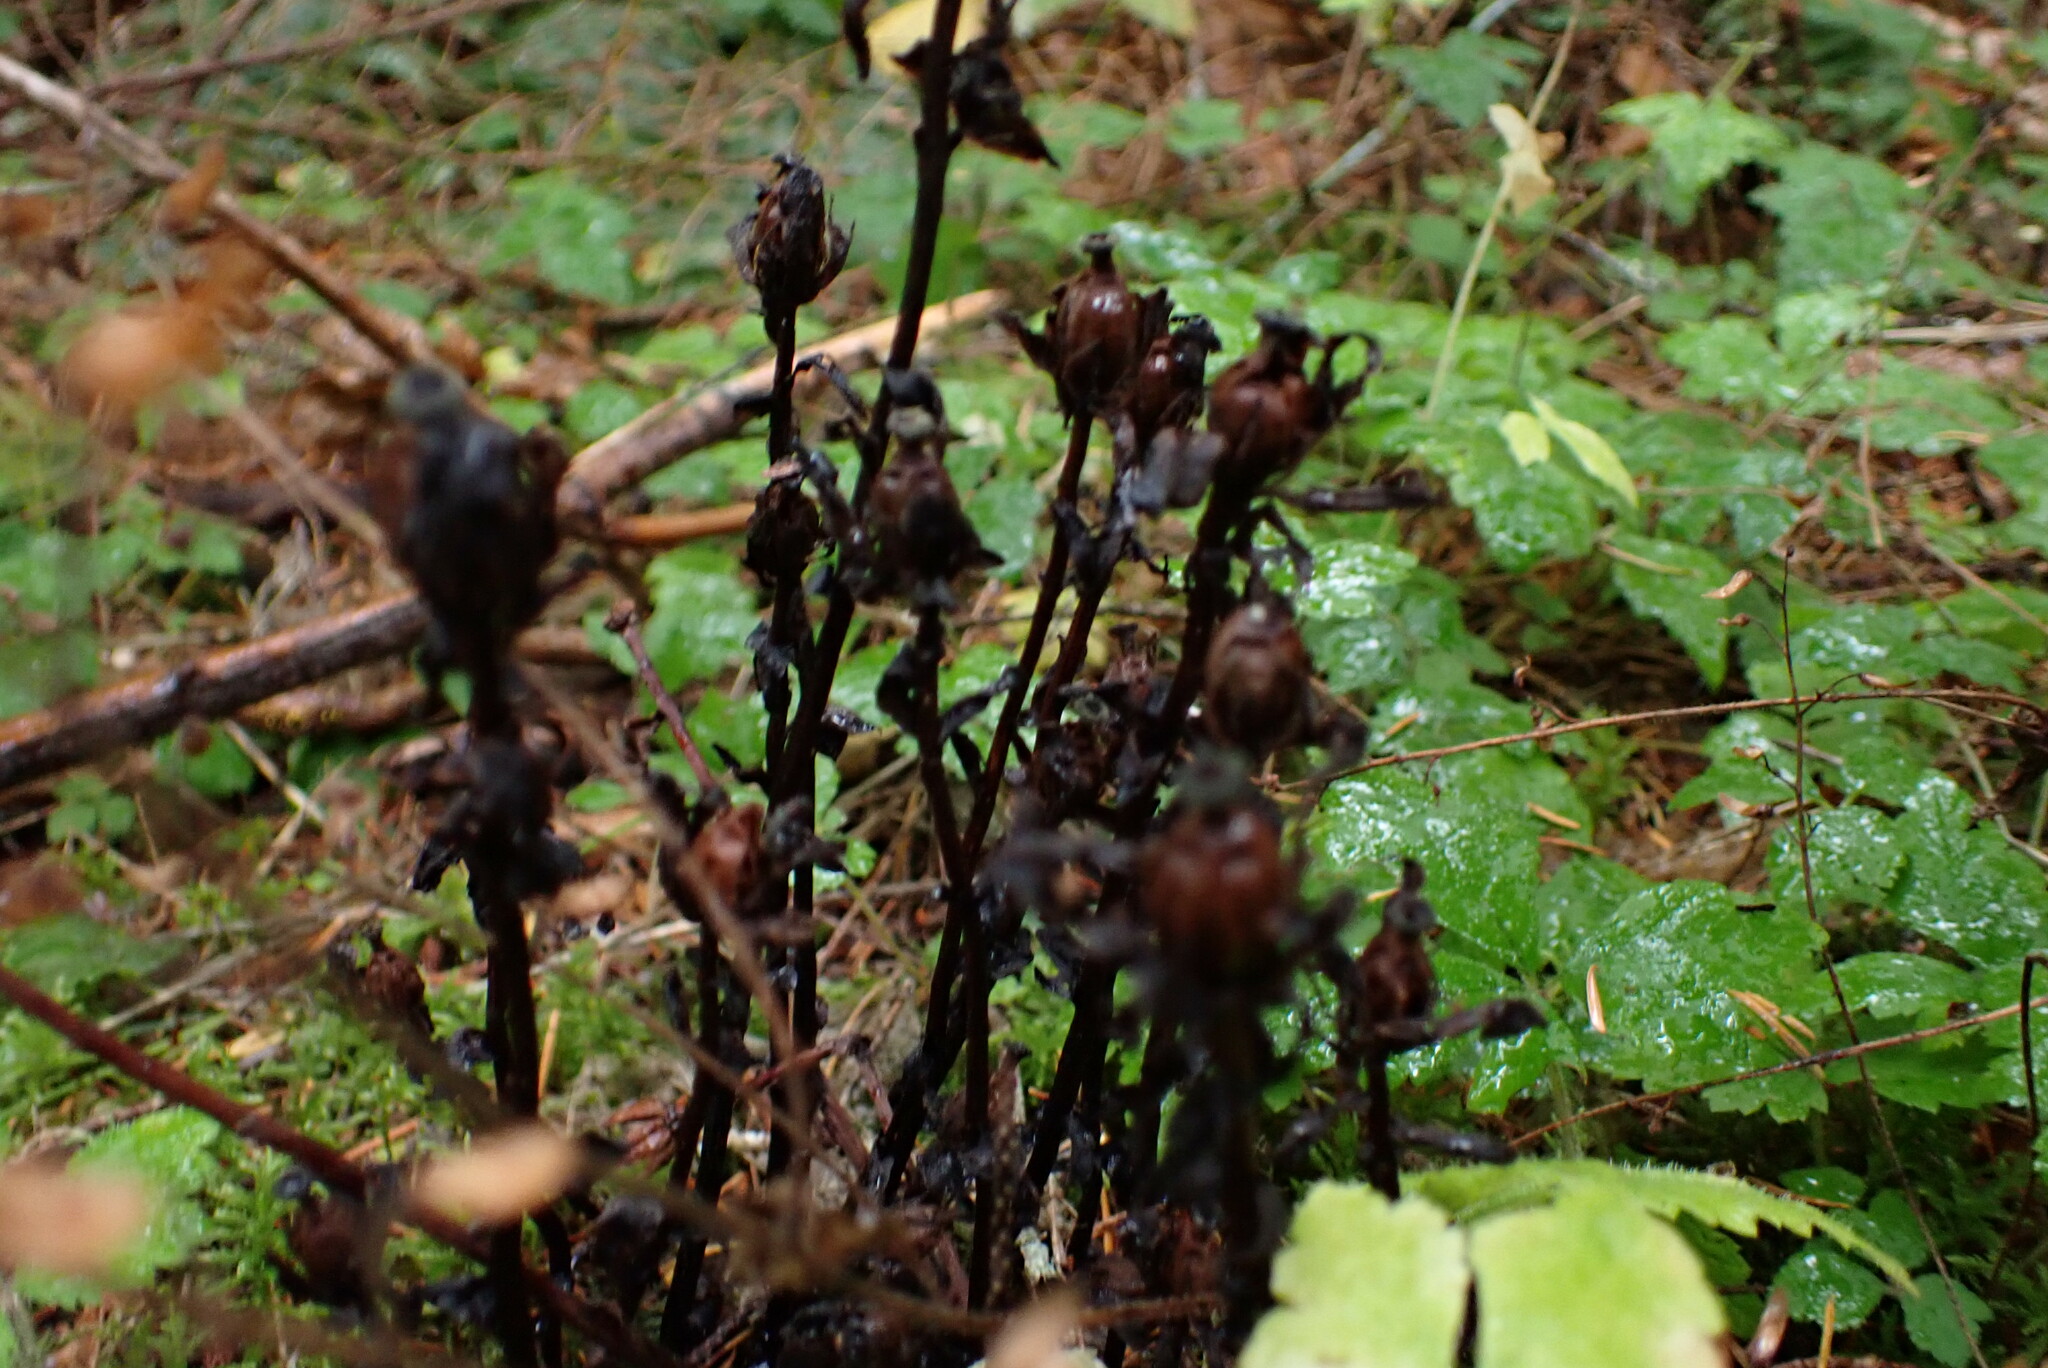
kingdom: Plantae
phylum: Tracheophyta
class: Magnoliopsida
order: Ericales
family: Ericaceae
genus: Monotropa
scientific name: Monotropa uniflora
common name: Convulsion root
